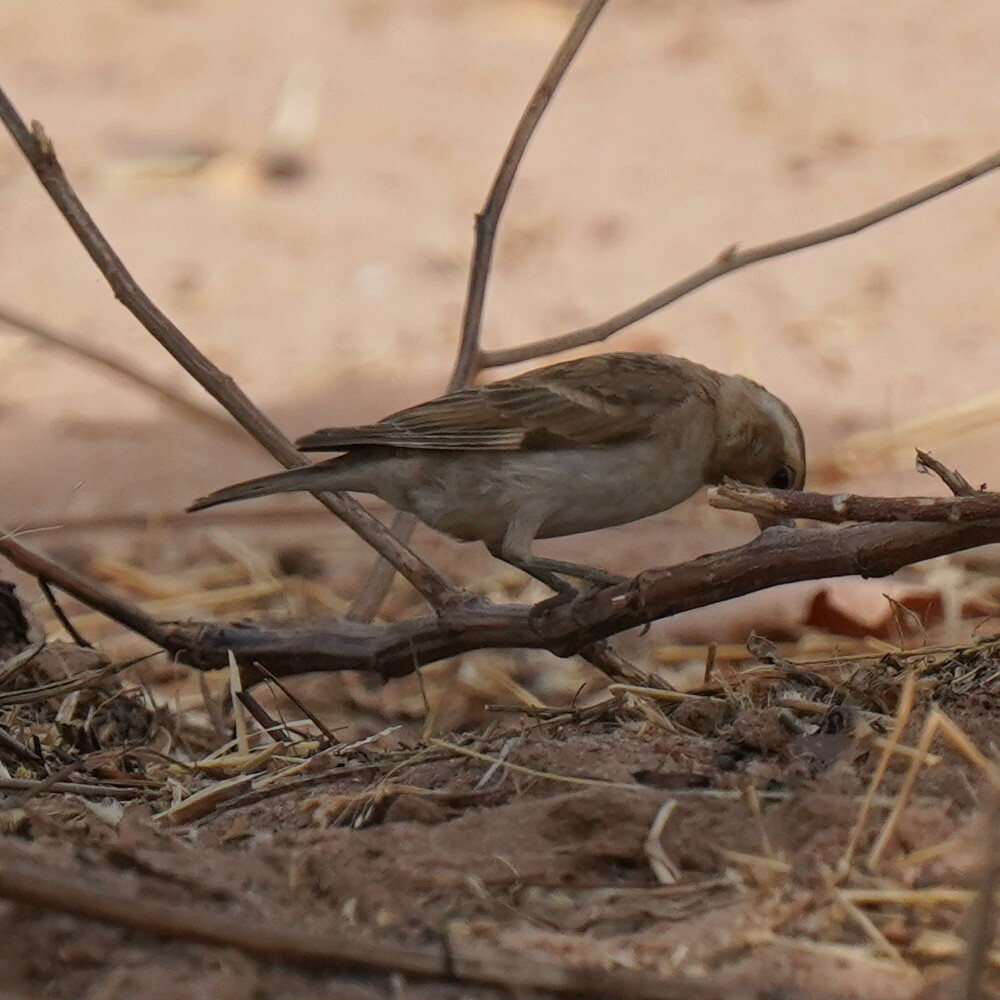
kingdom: Animalia
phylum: Chordata
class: Aves
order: Passeriformes
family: Passeridae
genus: Gymnoris
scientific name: Gymnoris dentata
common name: Bush petronia
